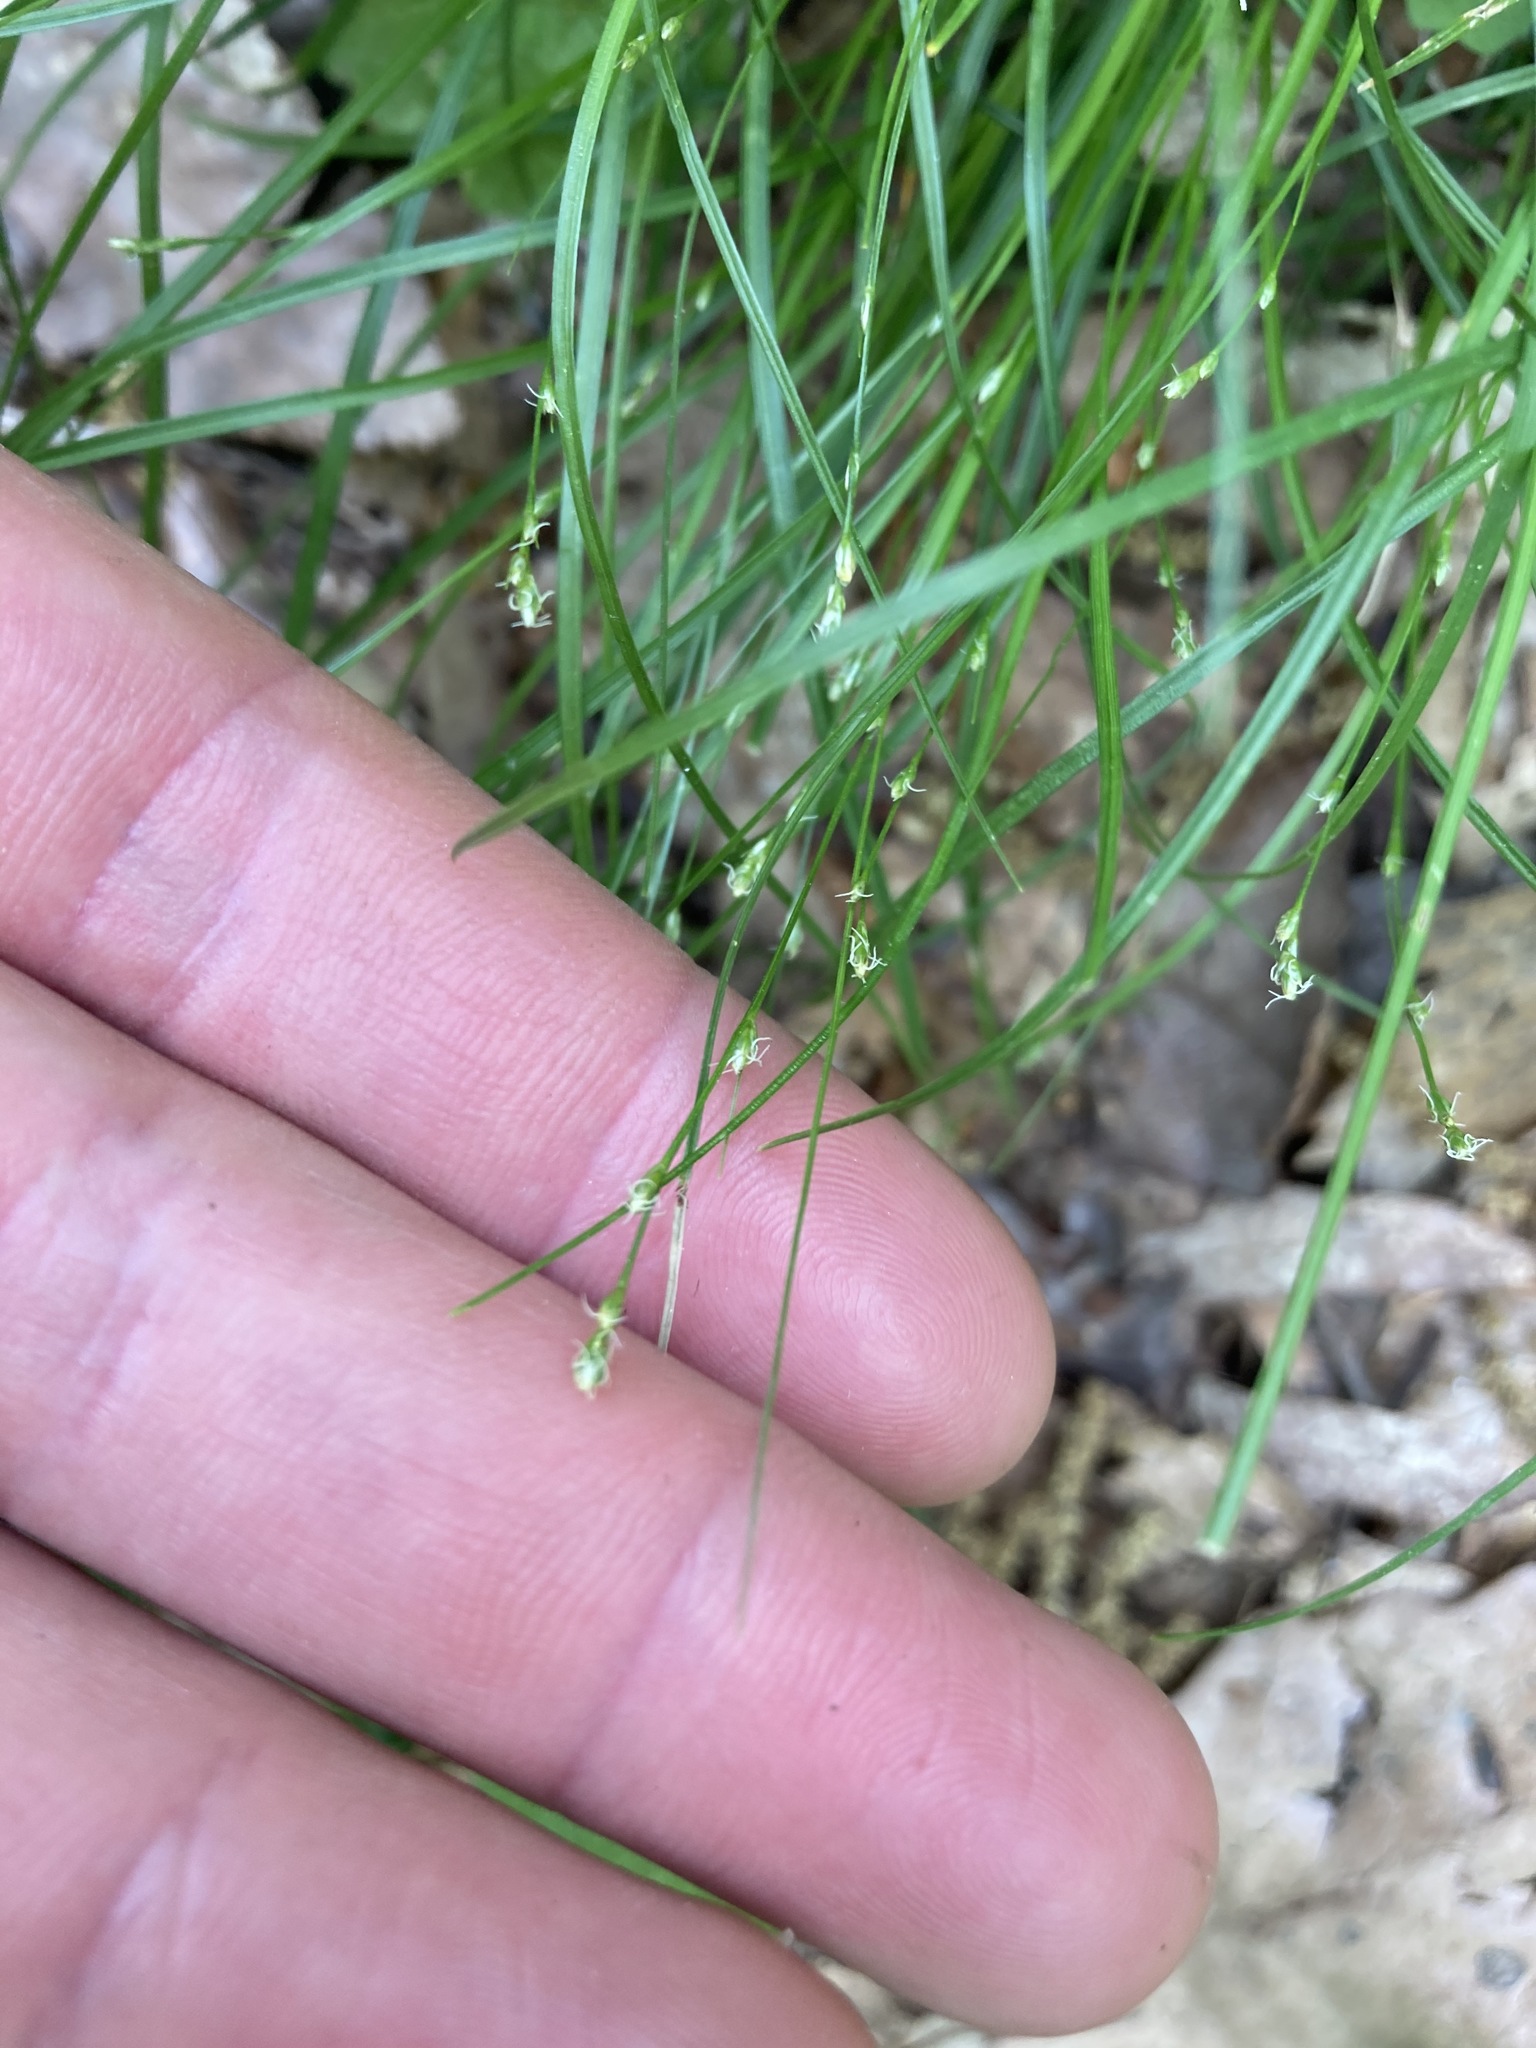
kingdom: Plantae
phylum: Tracheophyta
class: Liliopsida
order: Poales
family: Cyperaceae
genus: Carex
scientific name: Carex
